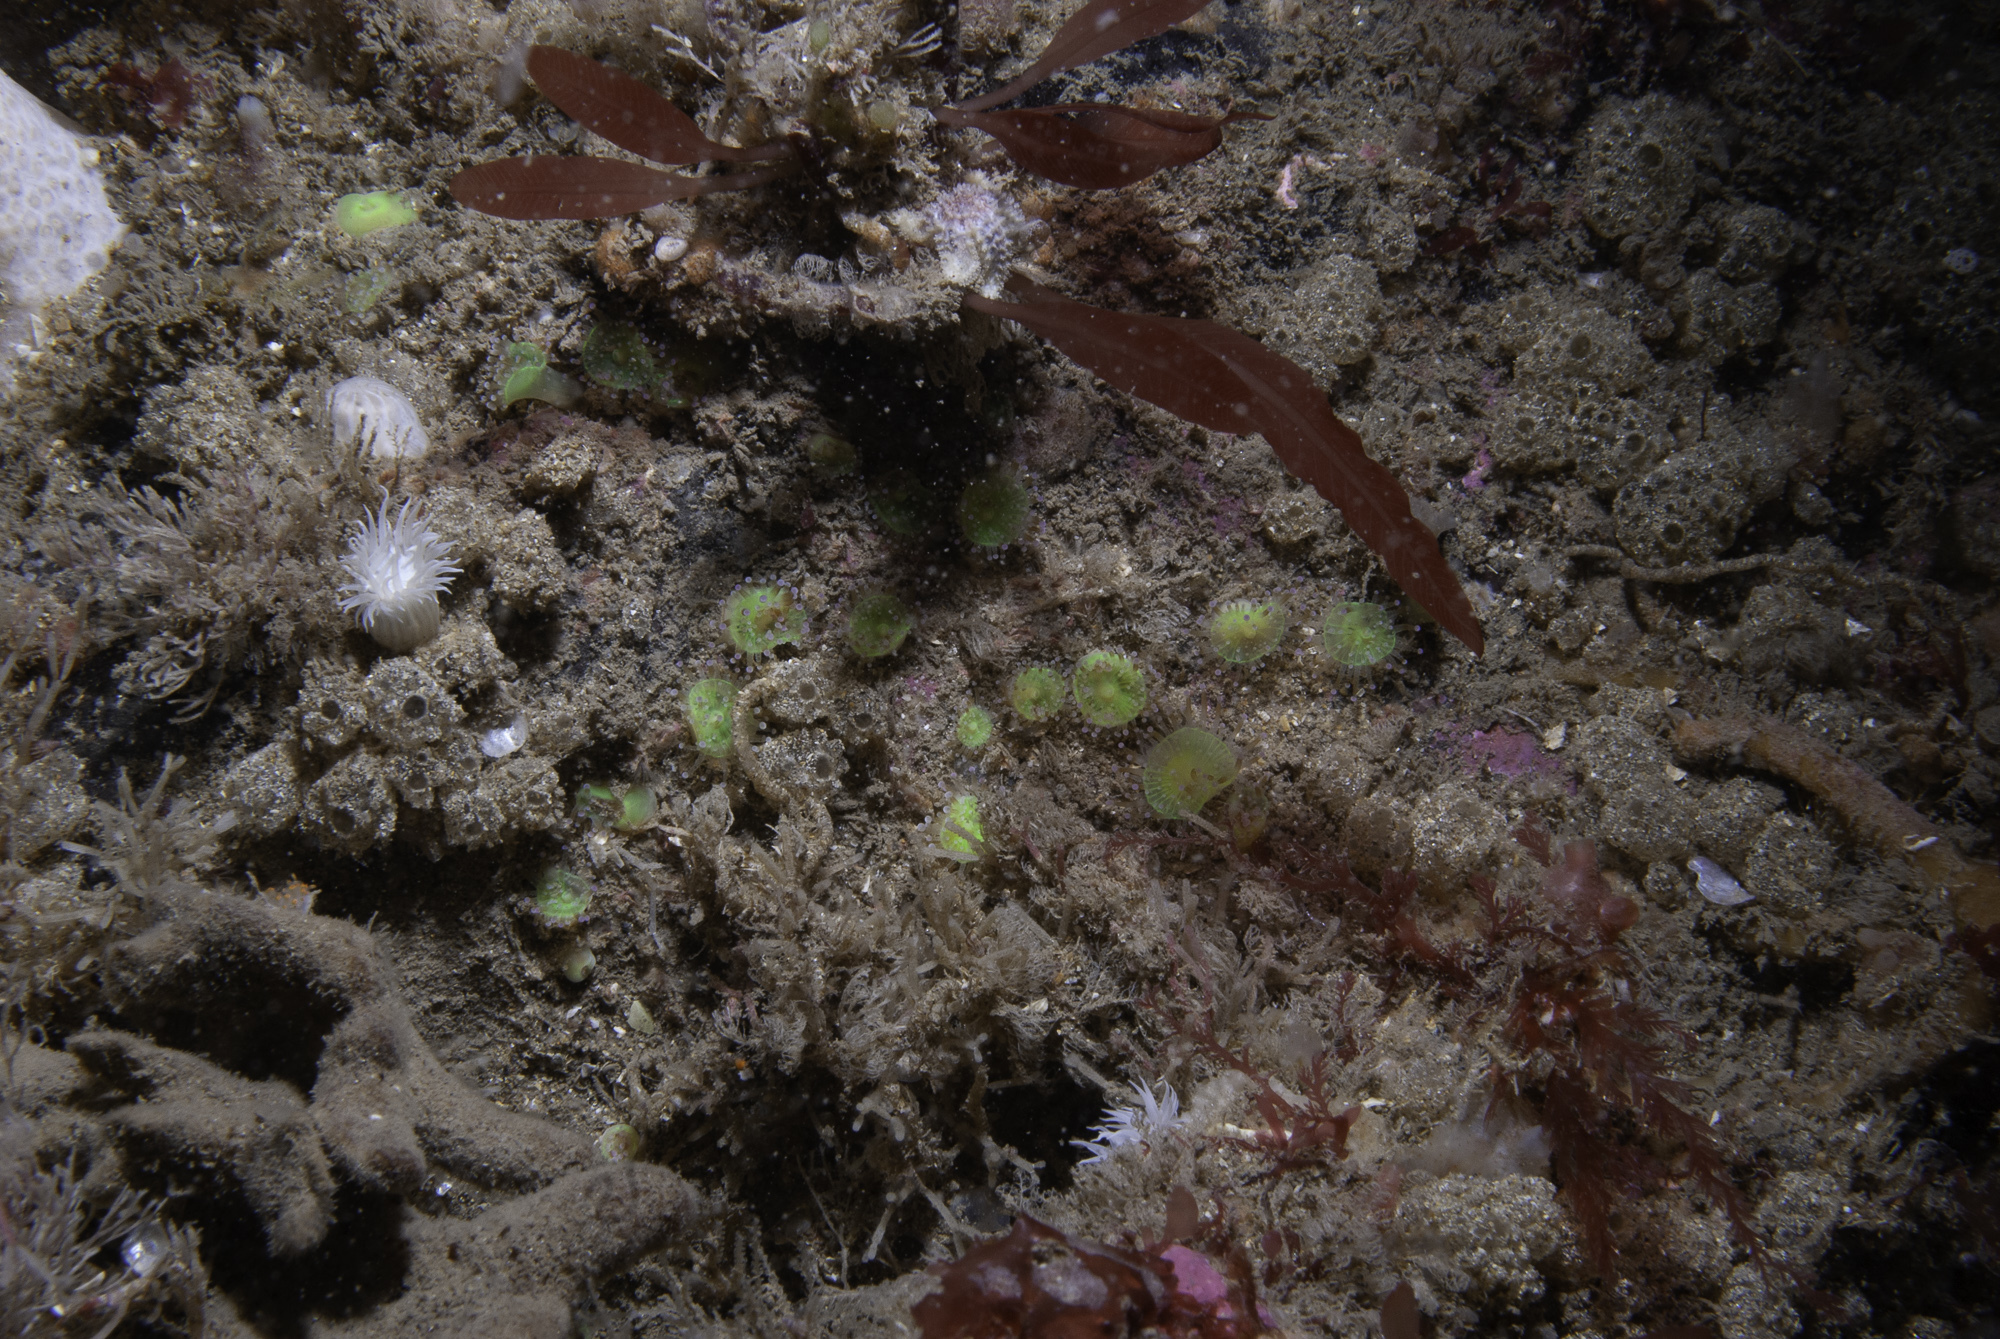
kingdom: Animalia
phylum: Cnidaria
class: Anthozoa
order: Corallimorpharia
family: Corallimorphidae
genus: Corynactis
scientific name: Corynactis viridis
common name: Jewel anemone
